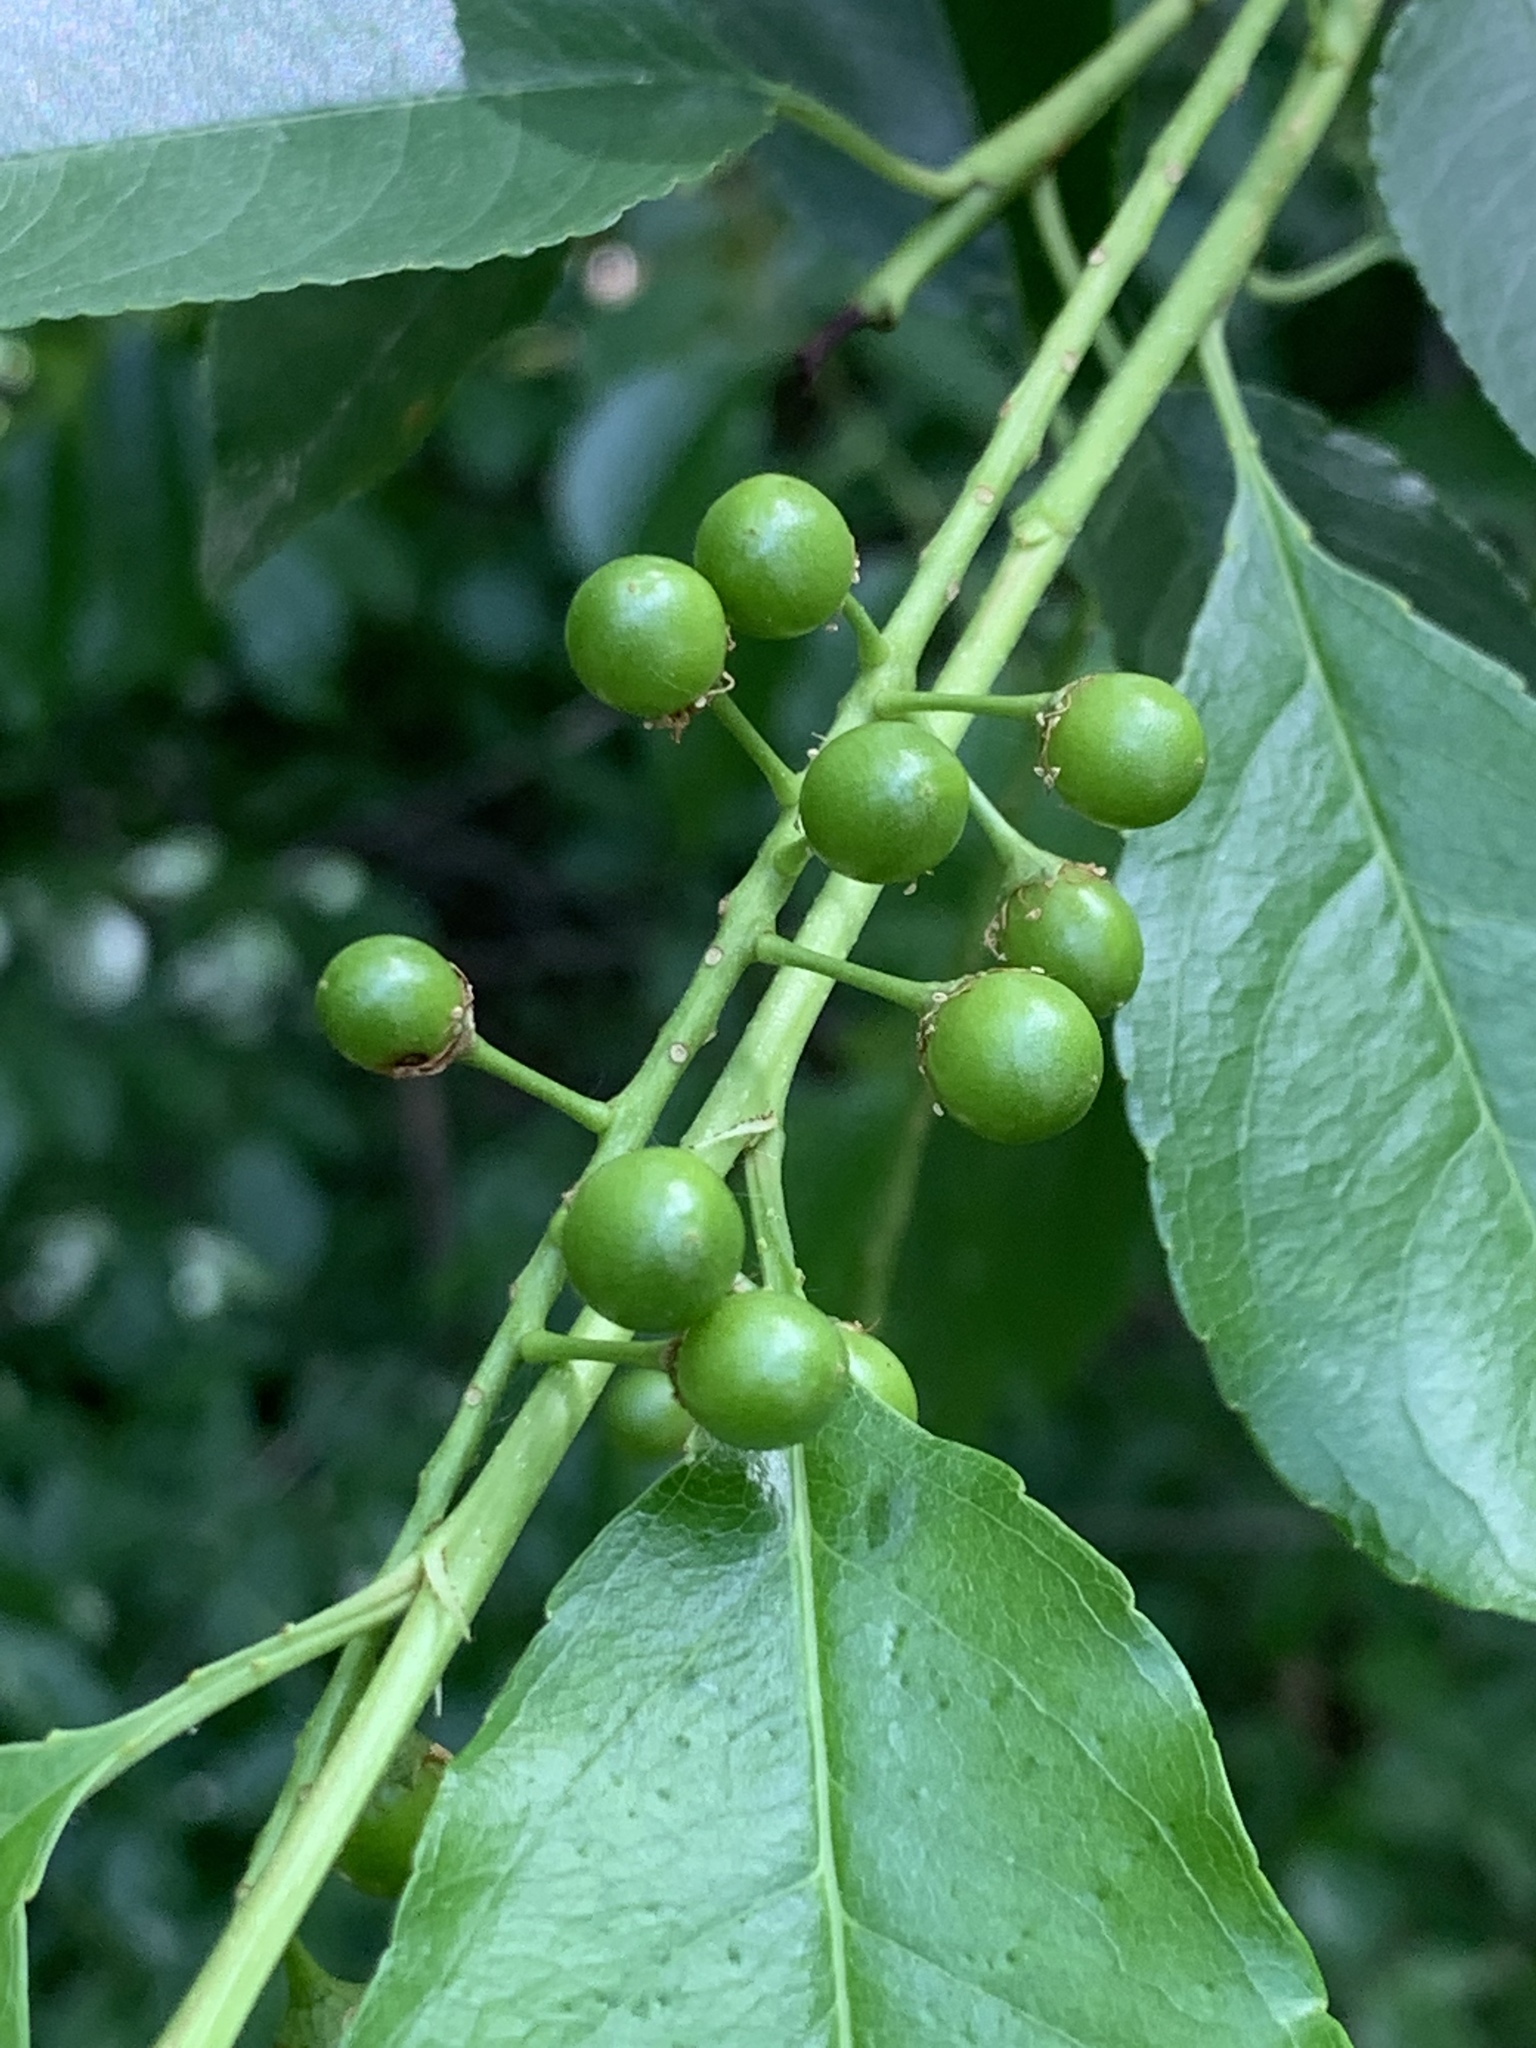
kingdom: Plantae
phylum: Tracheophyta
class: Magnoliopsida
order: Rosales
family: Rosaceae
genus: Prunus
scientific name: Prunus serotina
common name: Black cherry
